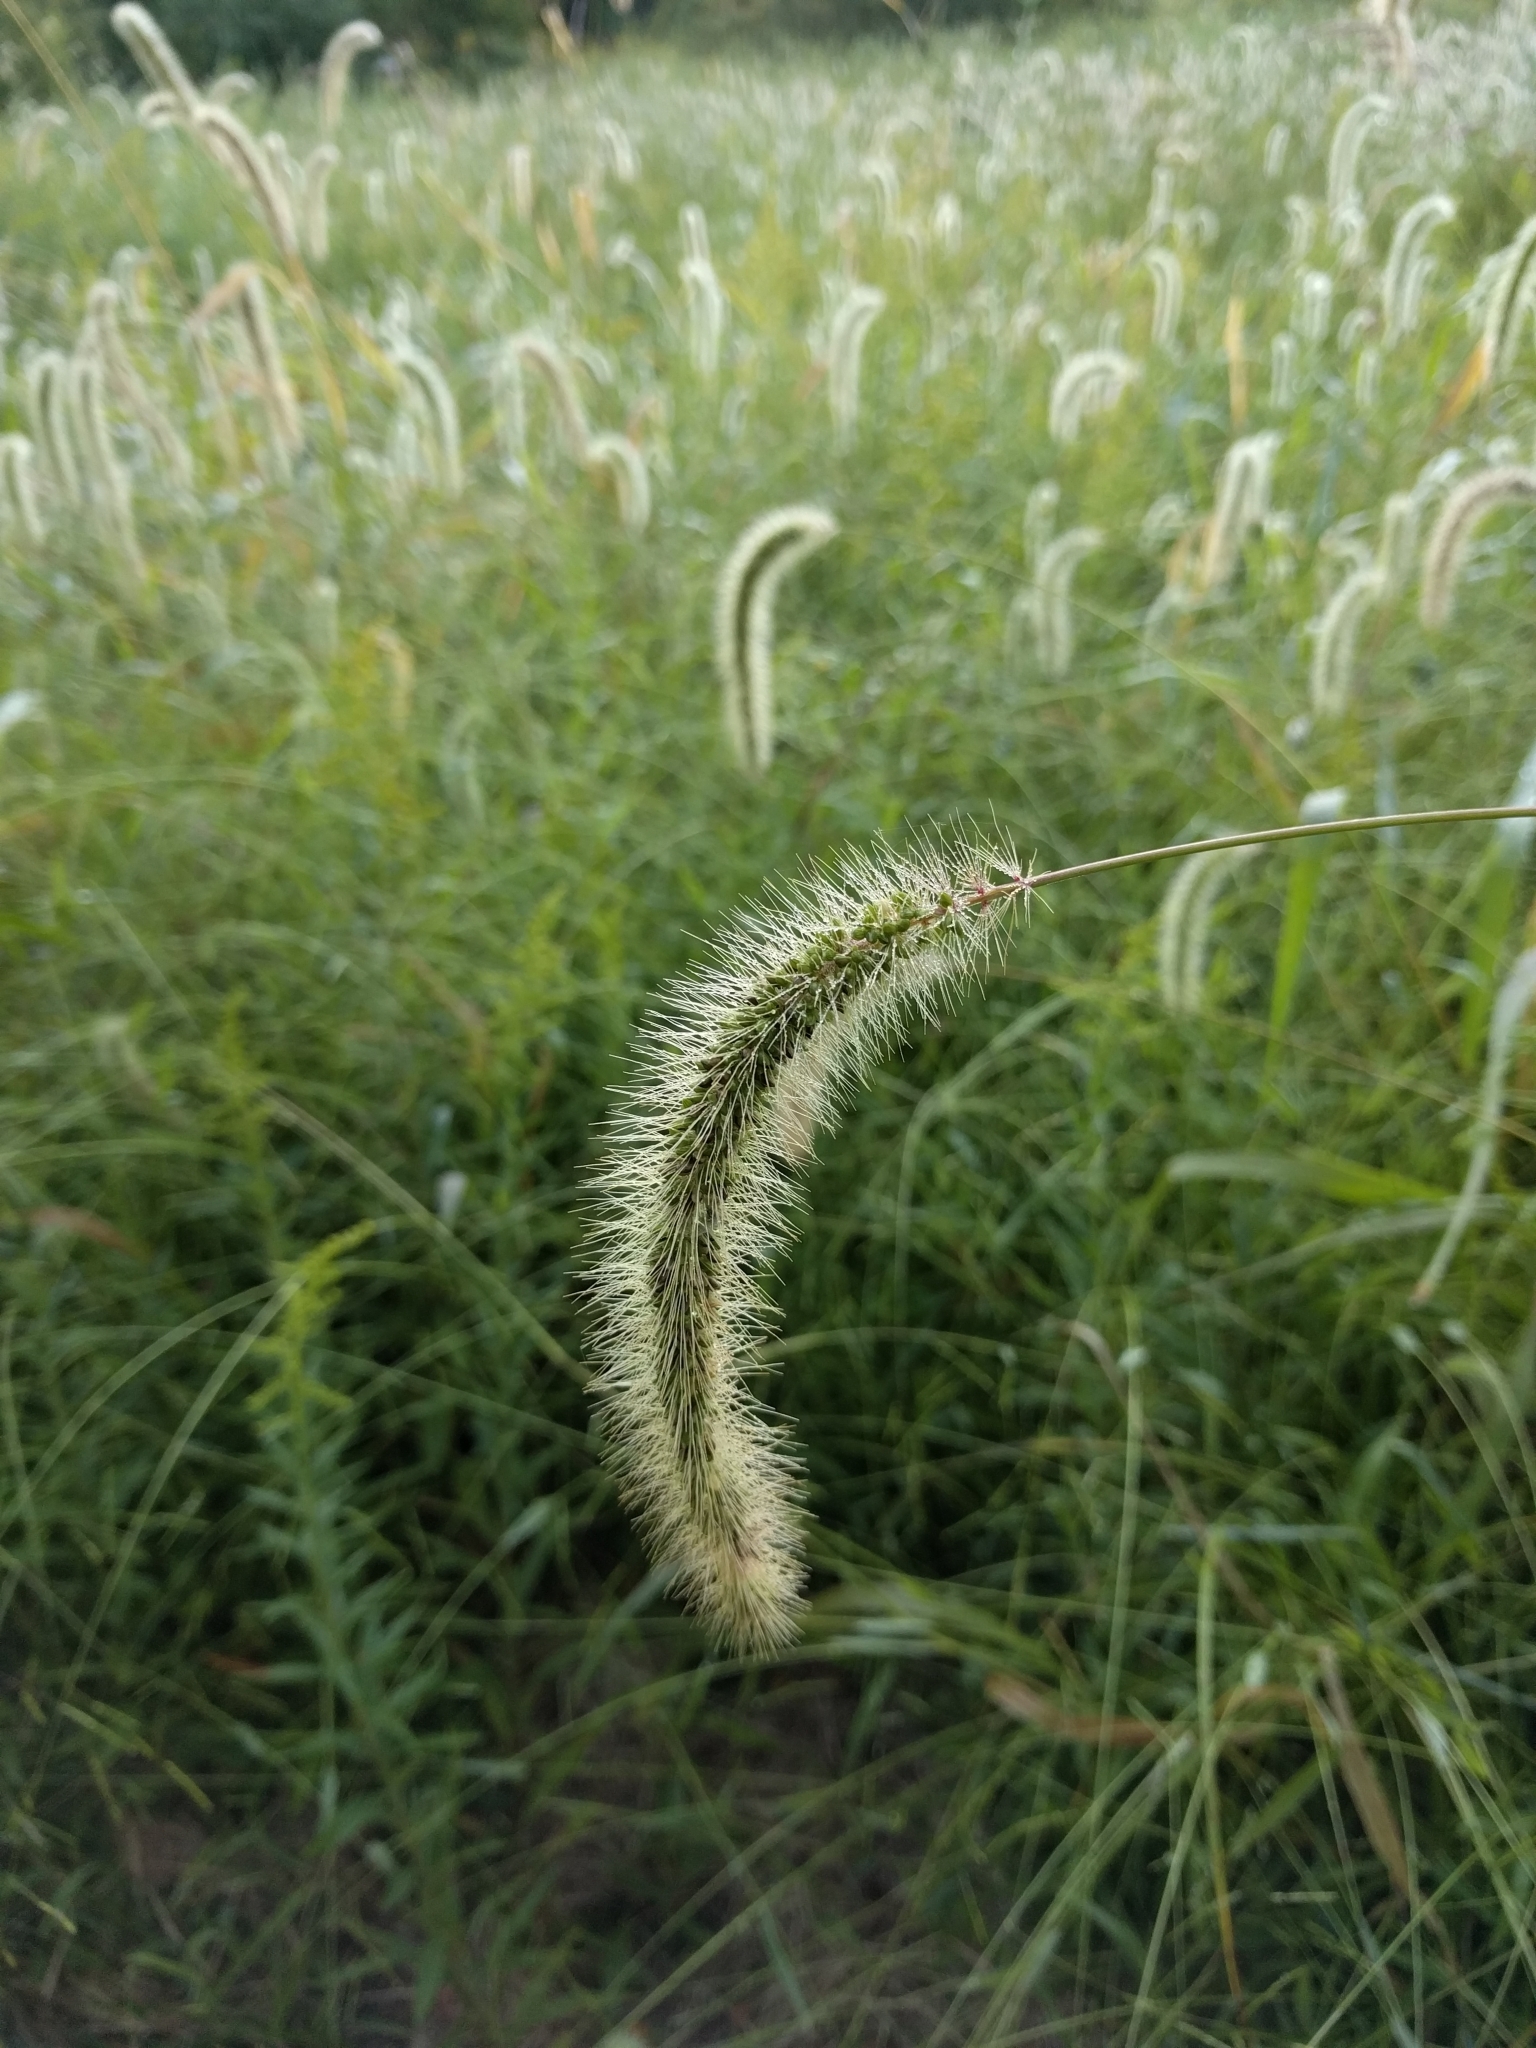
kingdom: Plantae
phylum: Tracheophyta
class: Liliopsida
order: Poales
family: Poaceae
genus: Setaria
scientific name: Setaria faberi
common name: Nodding bristle-grass
